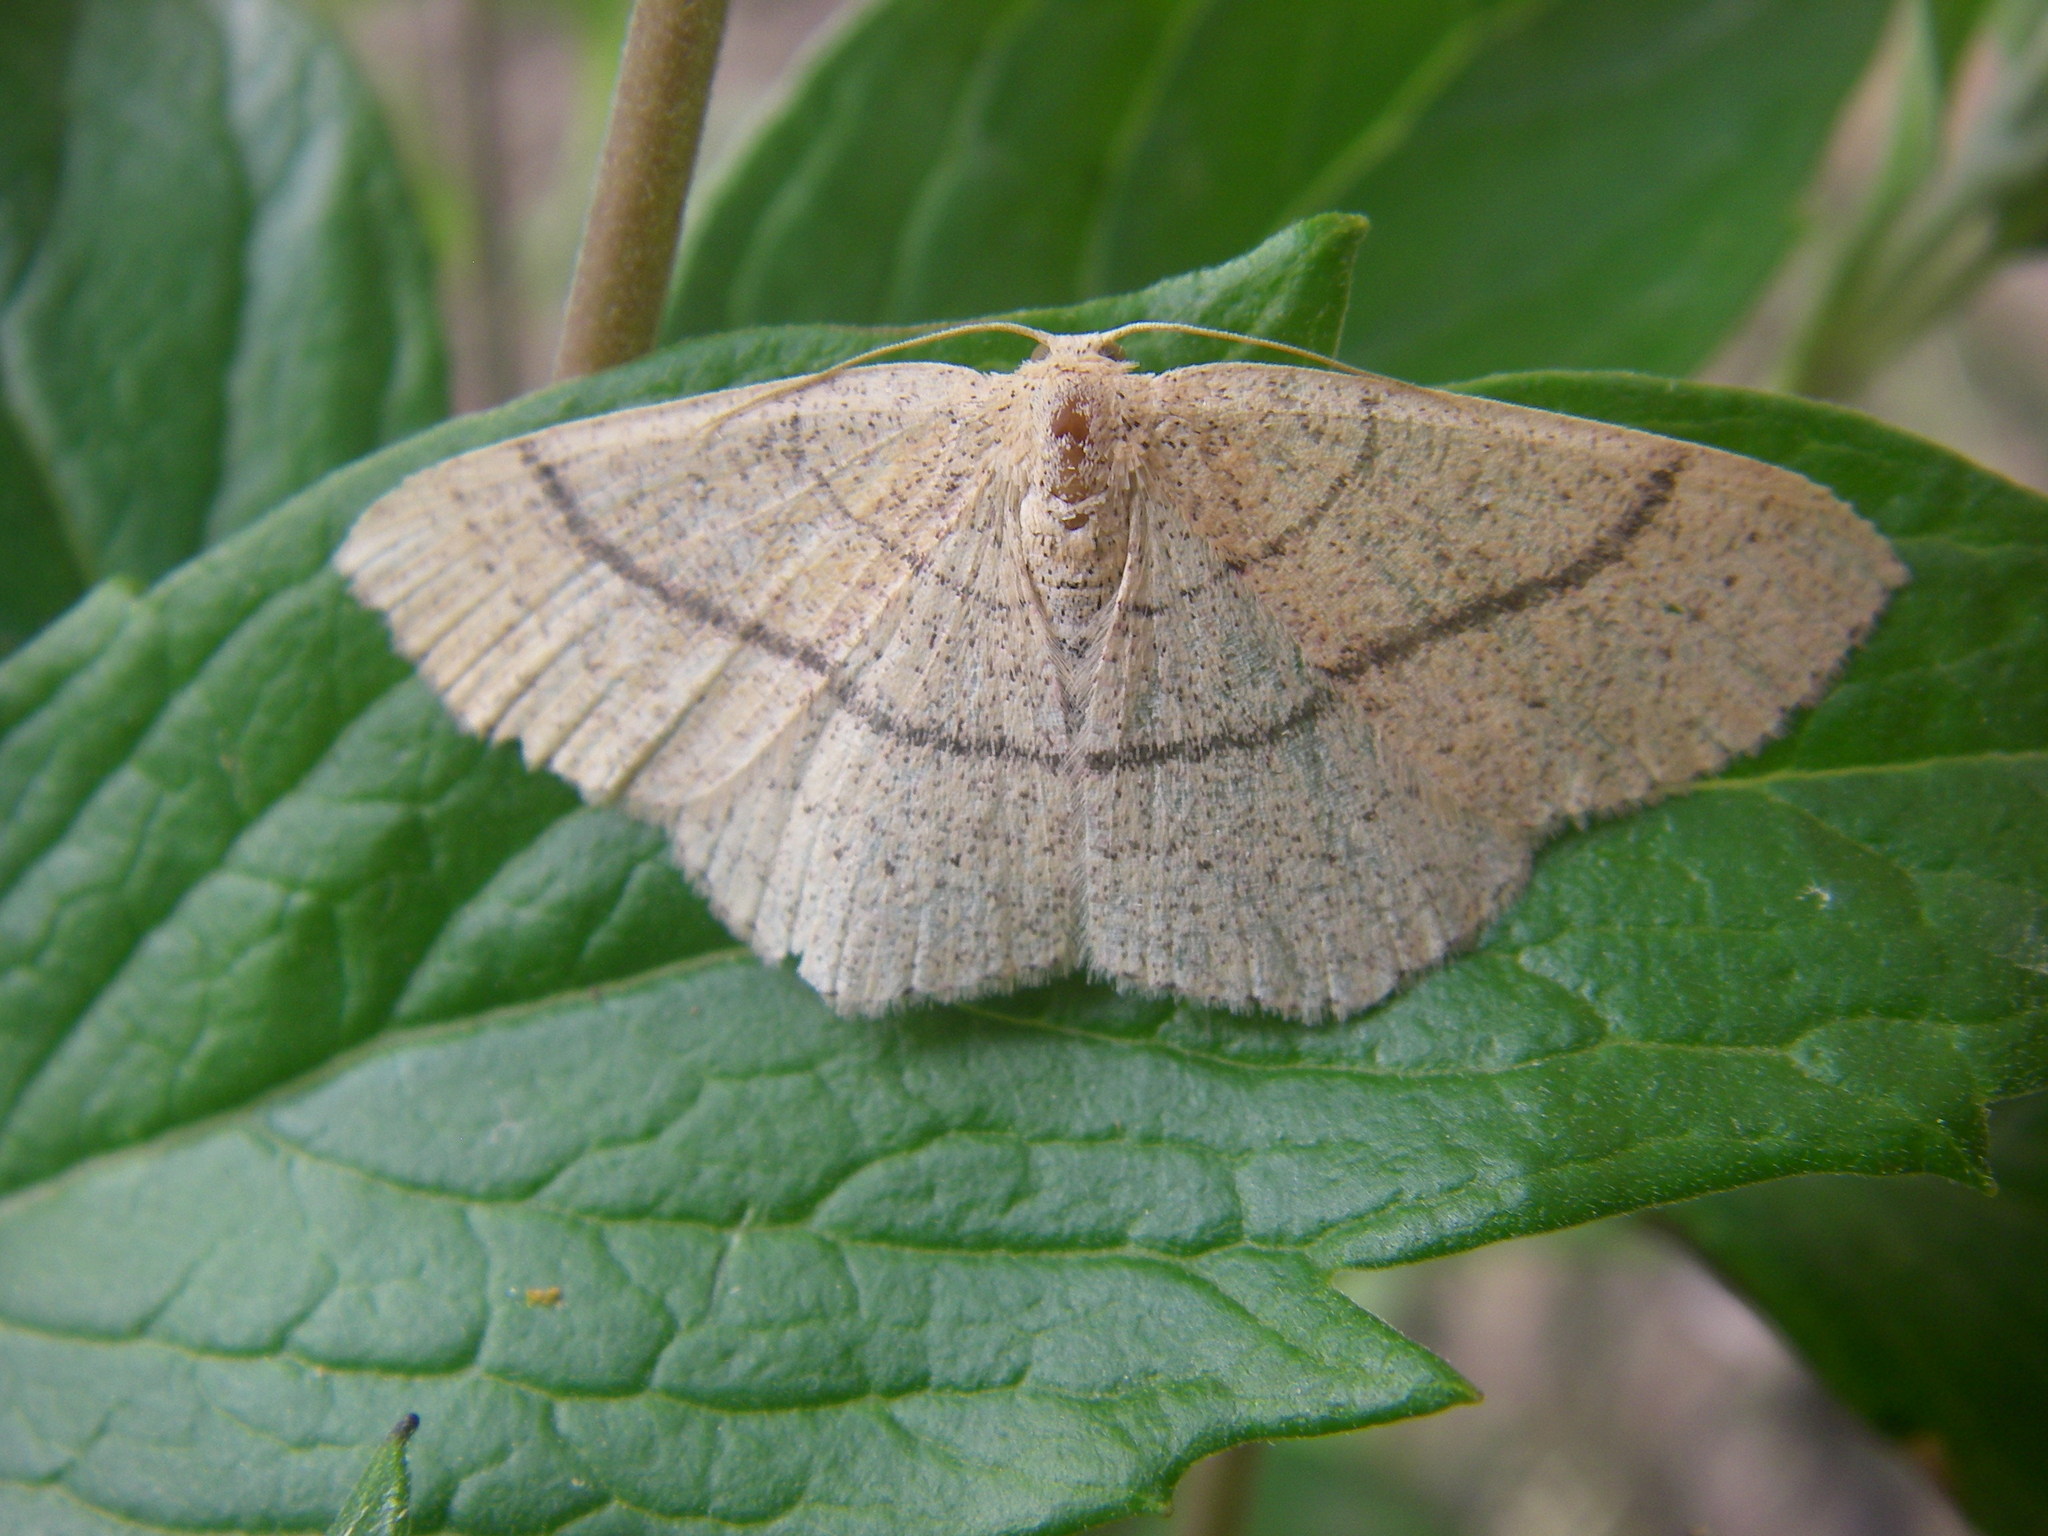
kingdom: Animalia
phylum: Arthropoda
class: Insecta
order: Lepidoptera
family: Geometridae
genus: Cyclophora
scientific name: Cyclophora ruficiliaria
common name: Jersey mocha
